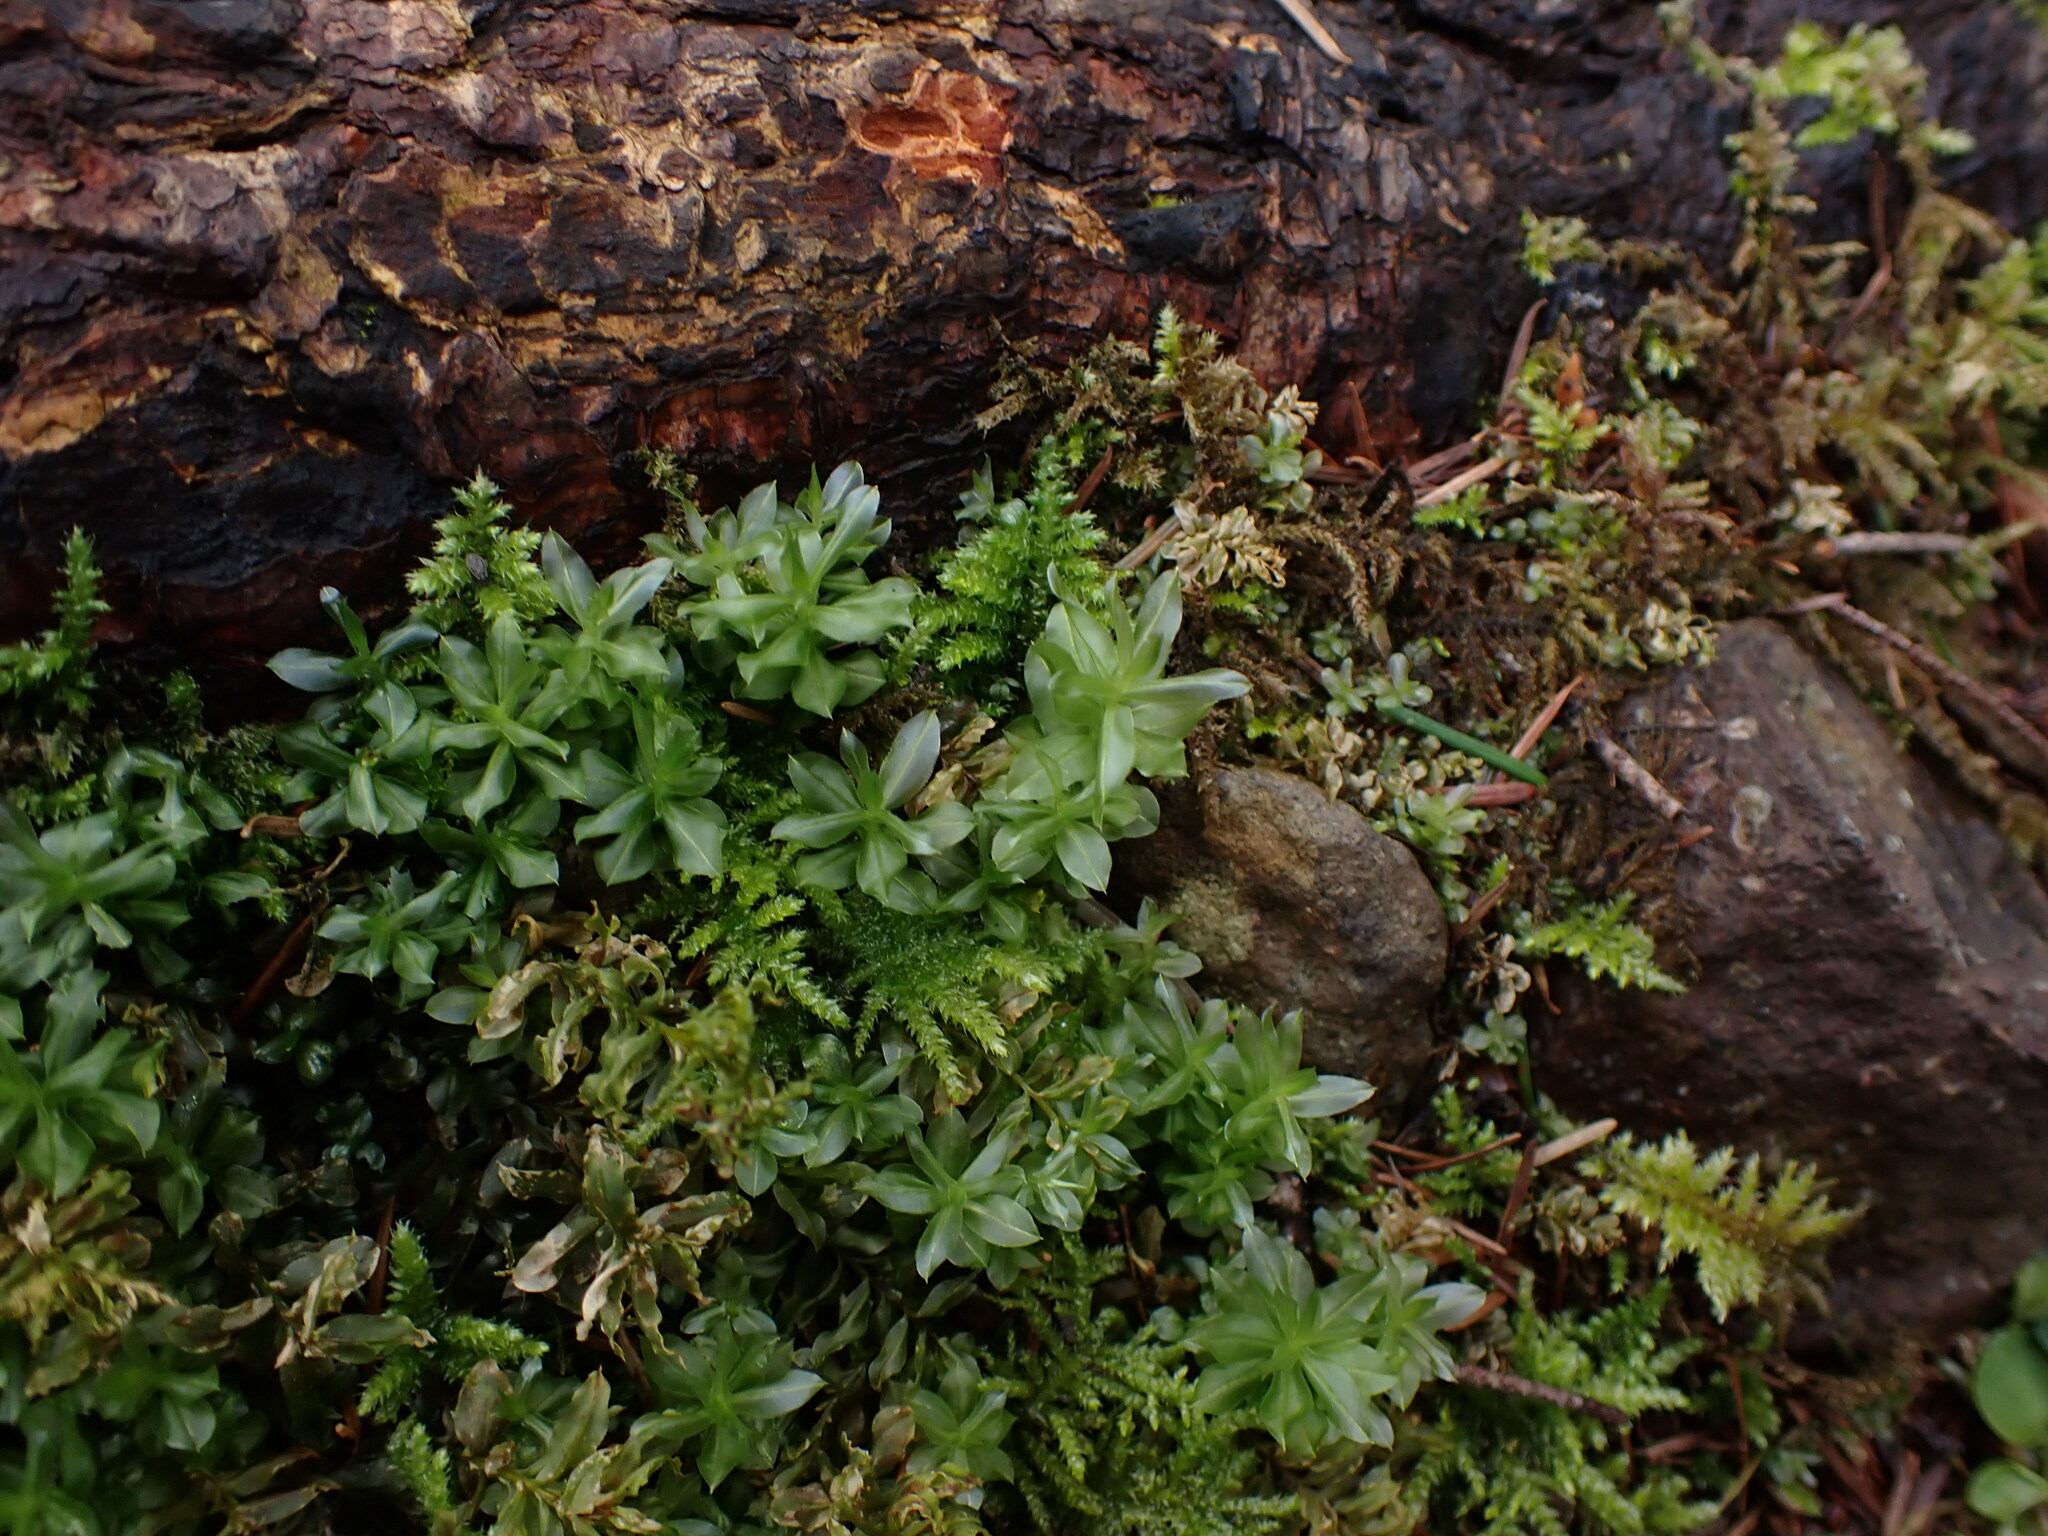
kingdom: Plantae
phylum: Bryophyta
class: Bryopsida
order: Bryales
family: Mniaceae
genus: Plagiomnium
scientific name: Plagiomnium insigne
